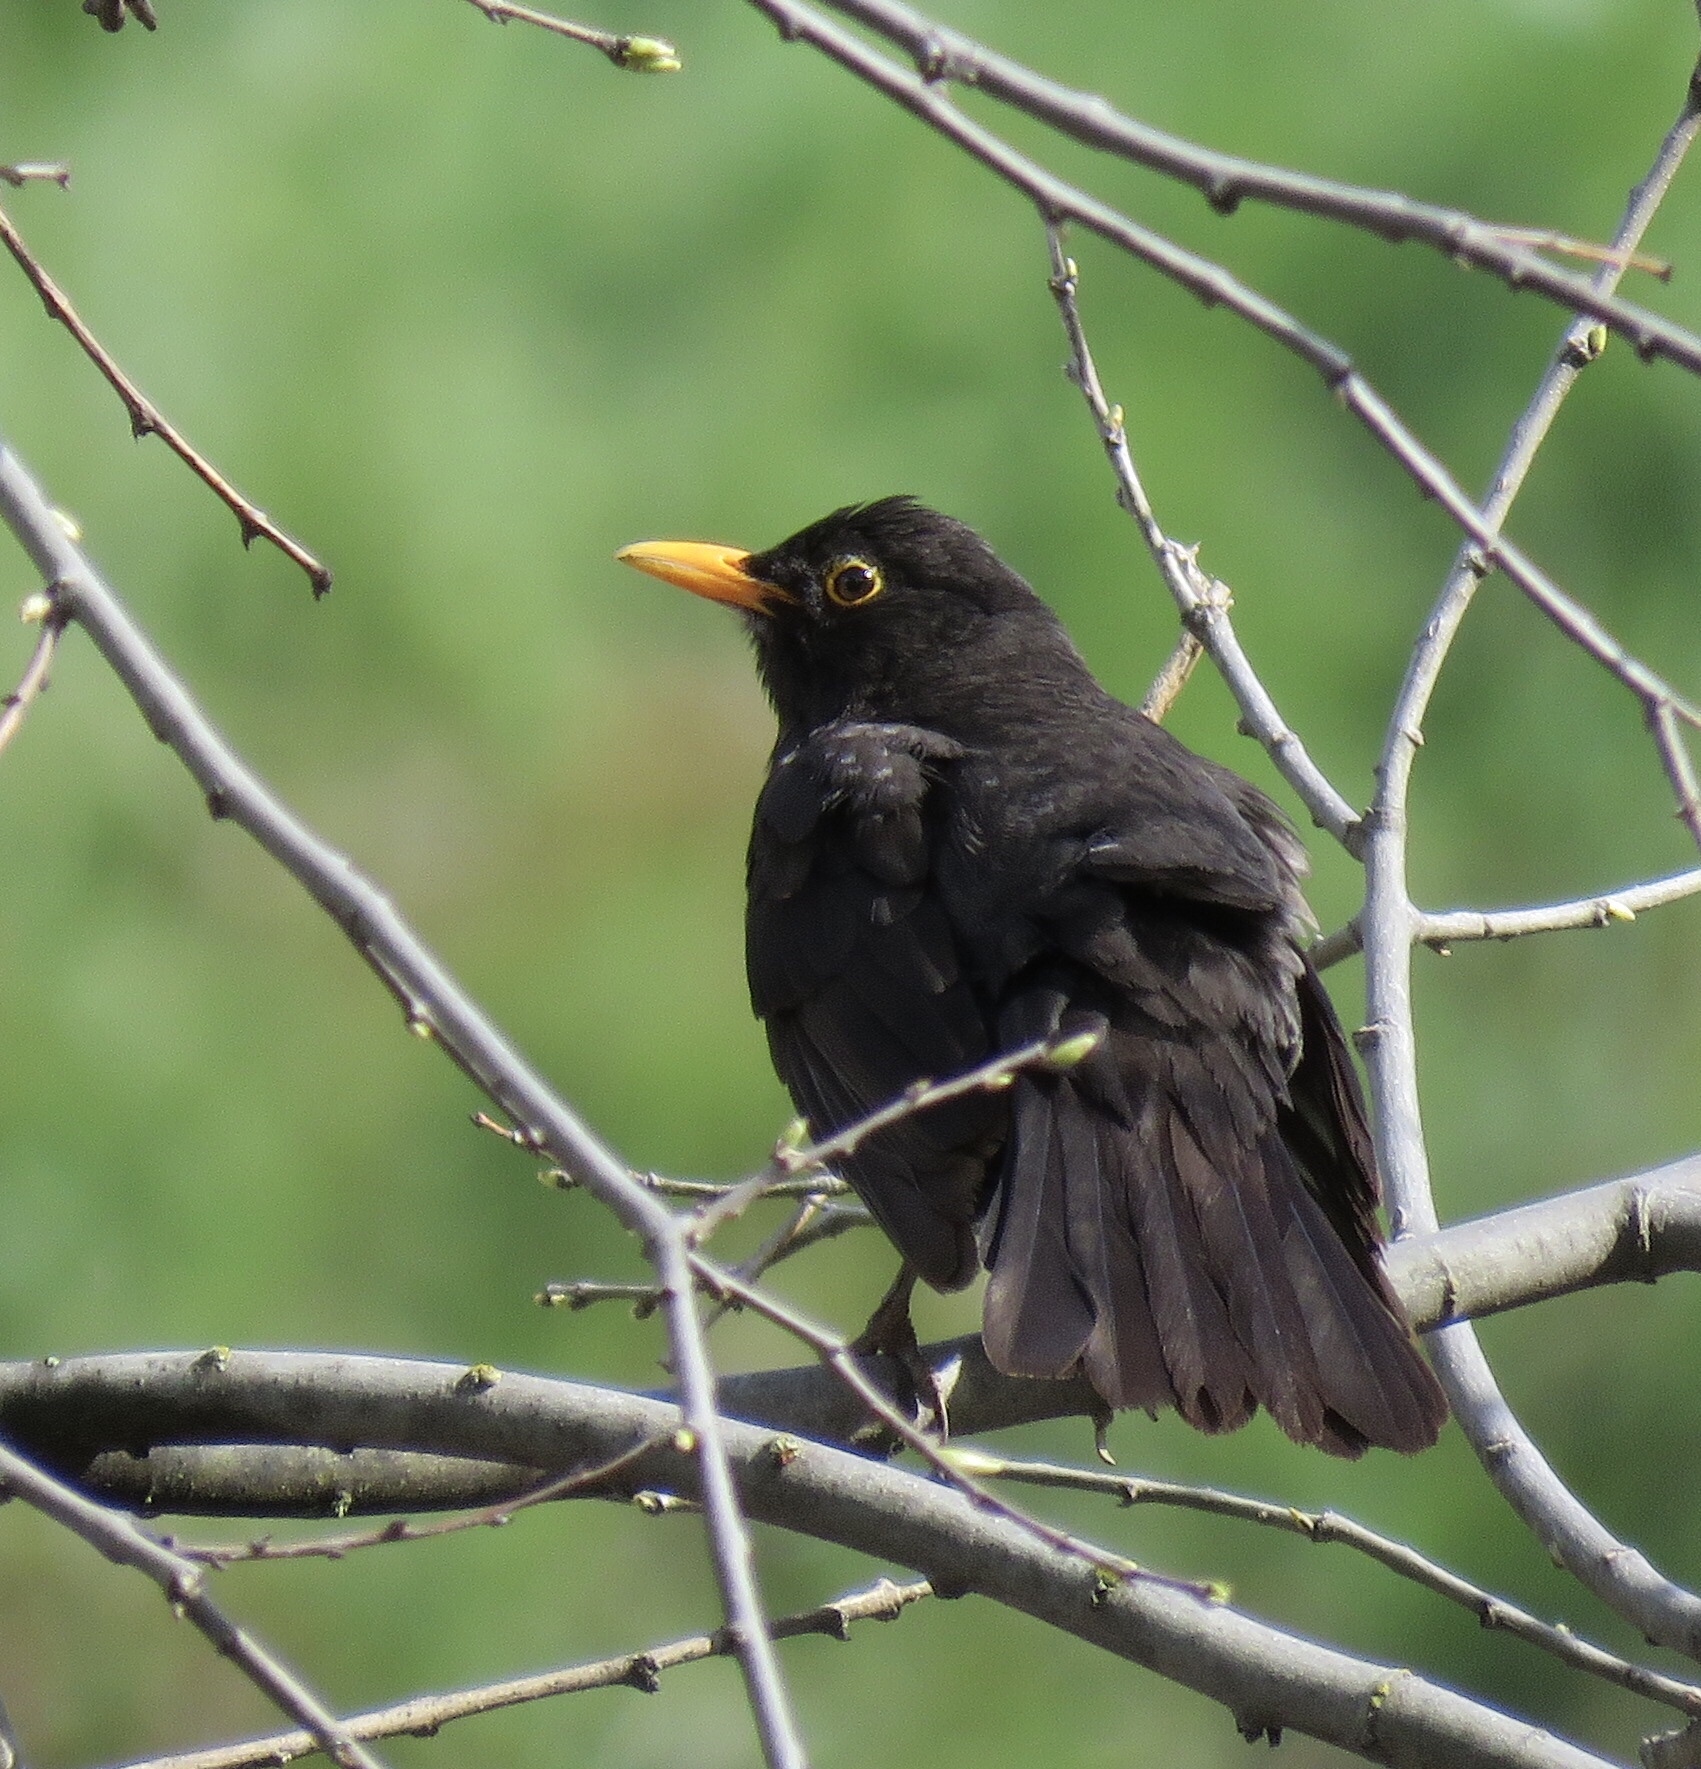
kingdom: Animalia
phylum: Chordata
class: Aves
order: Passeriformes
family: Turdidae
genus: Turdus
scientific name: Turdus merula
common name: Common blackbird
